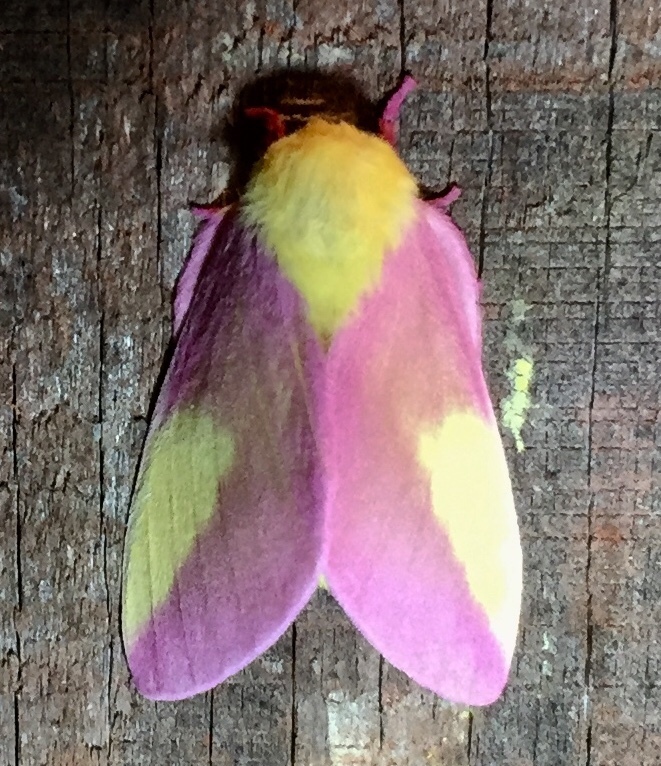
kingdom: Animalia
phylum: Arthropoda
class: Insecta
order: Lepidoptera
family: Saturniidae
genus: Dryocampa
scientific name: Dryocampa rubicunda
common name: Rosy maple moth
